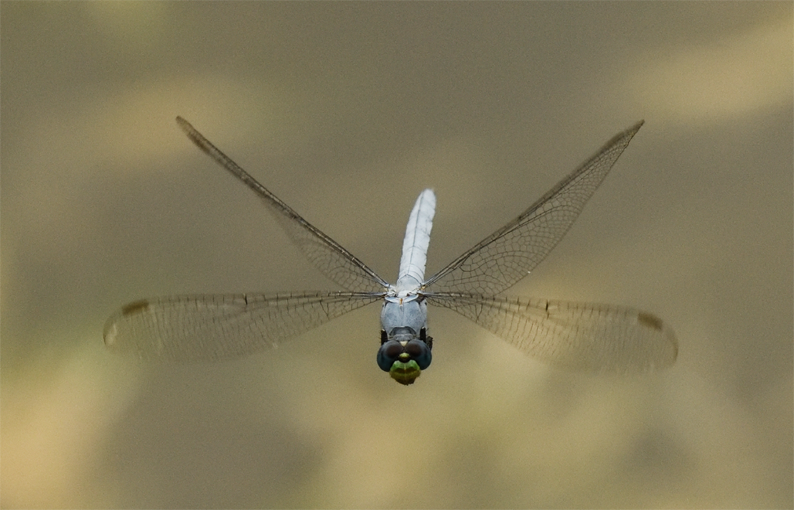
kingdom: Animalia
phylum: Arthropoda
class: Insecta
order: Odonata
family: Libellulidae
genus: Erythemis
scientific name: Erythemis collocata
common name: Western pondhawk
